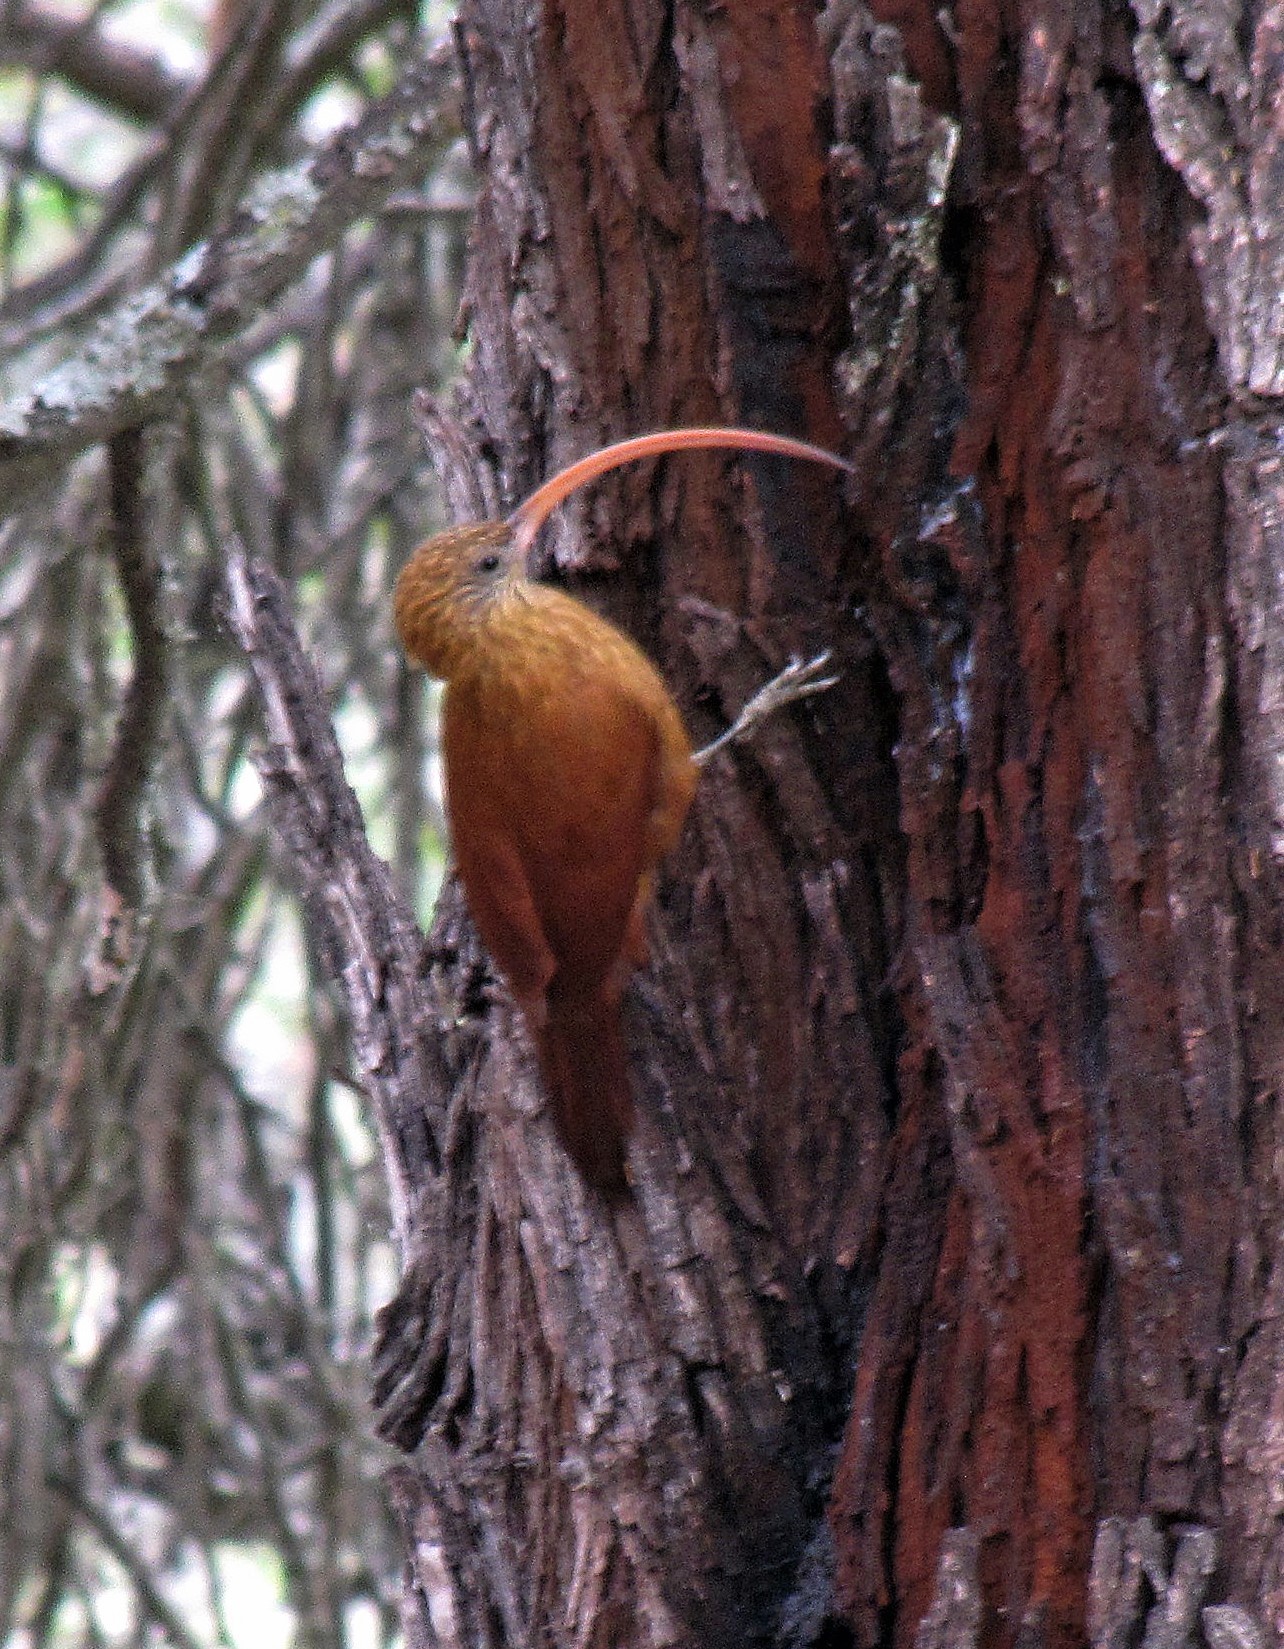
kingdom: Animalia
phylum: Chordata
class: Aves
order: Passeriformes
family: Furnariidae
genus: Campylorhamphus
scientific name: Campylorhamphus trochilirostris
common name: Red-billed scythebill
